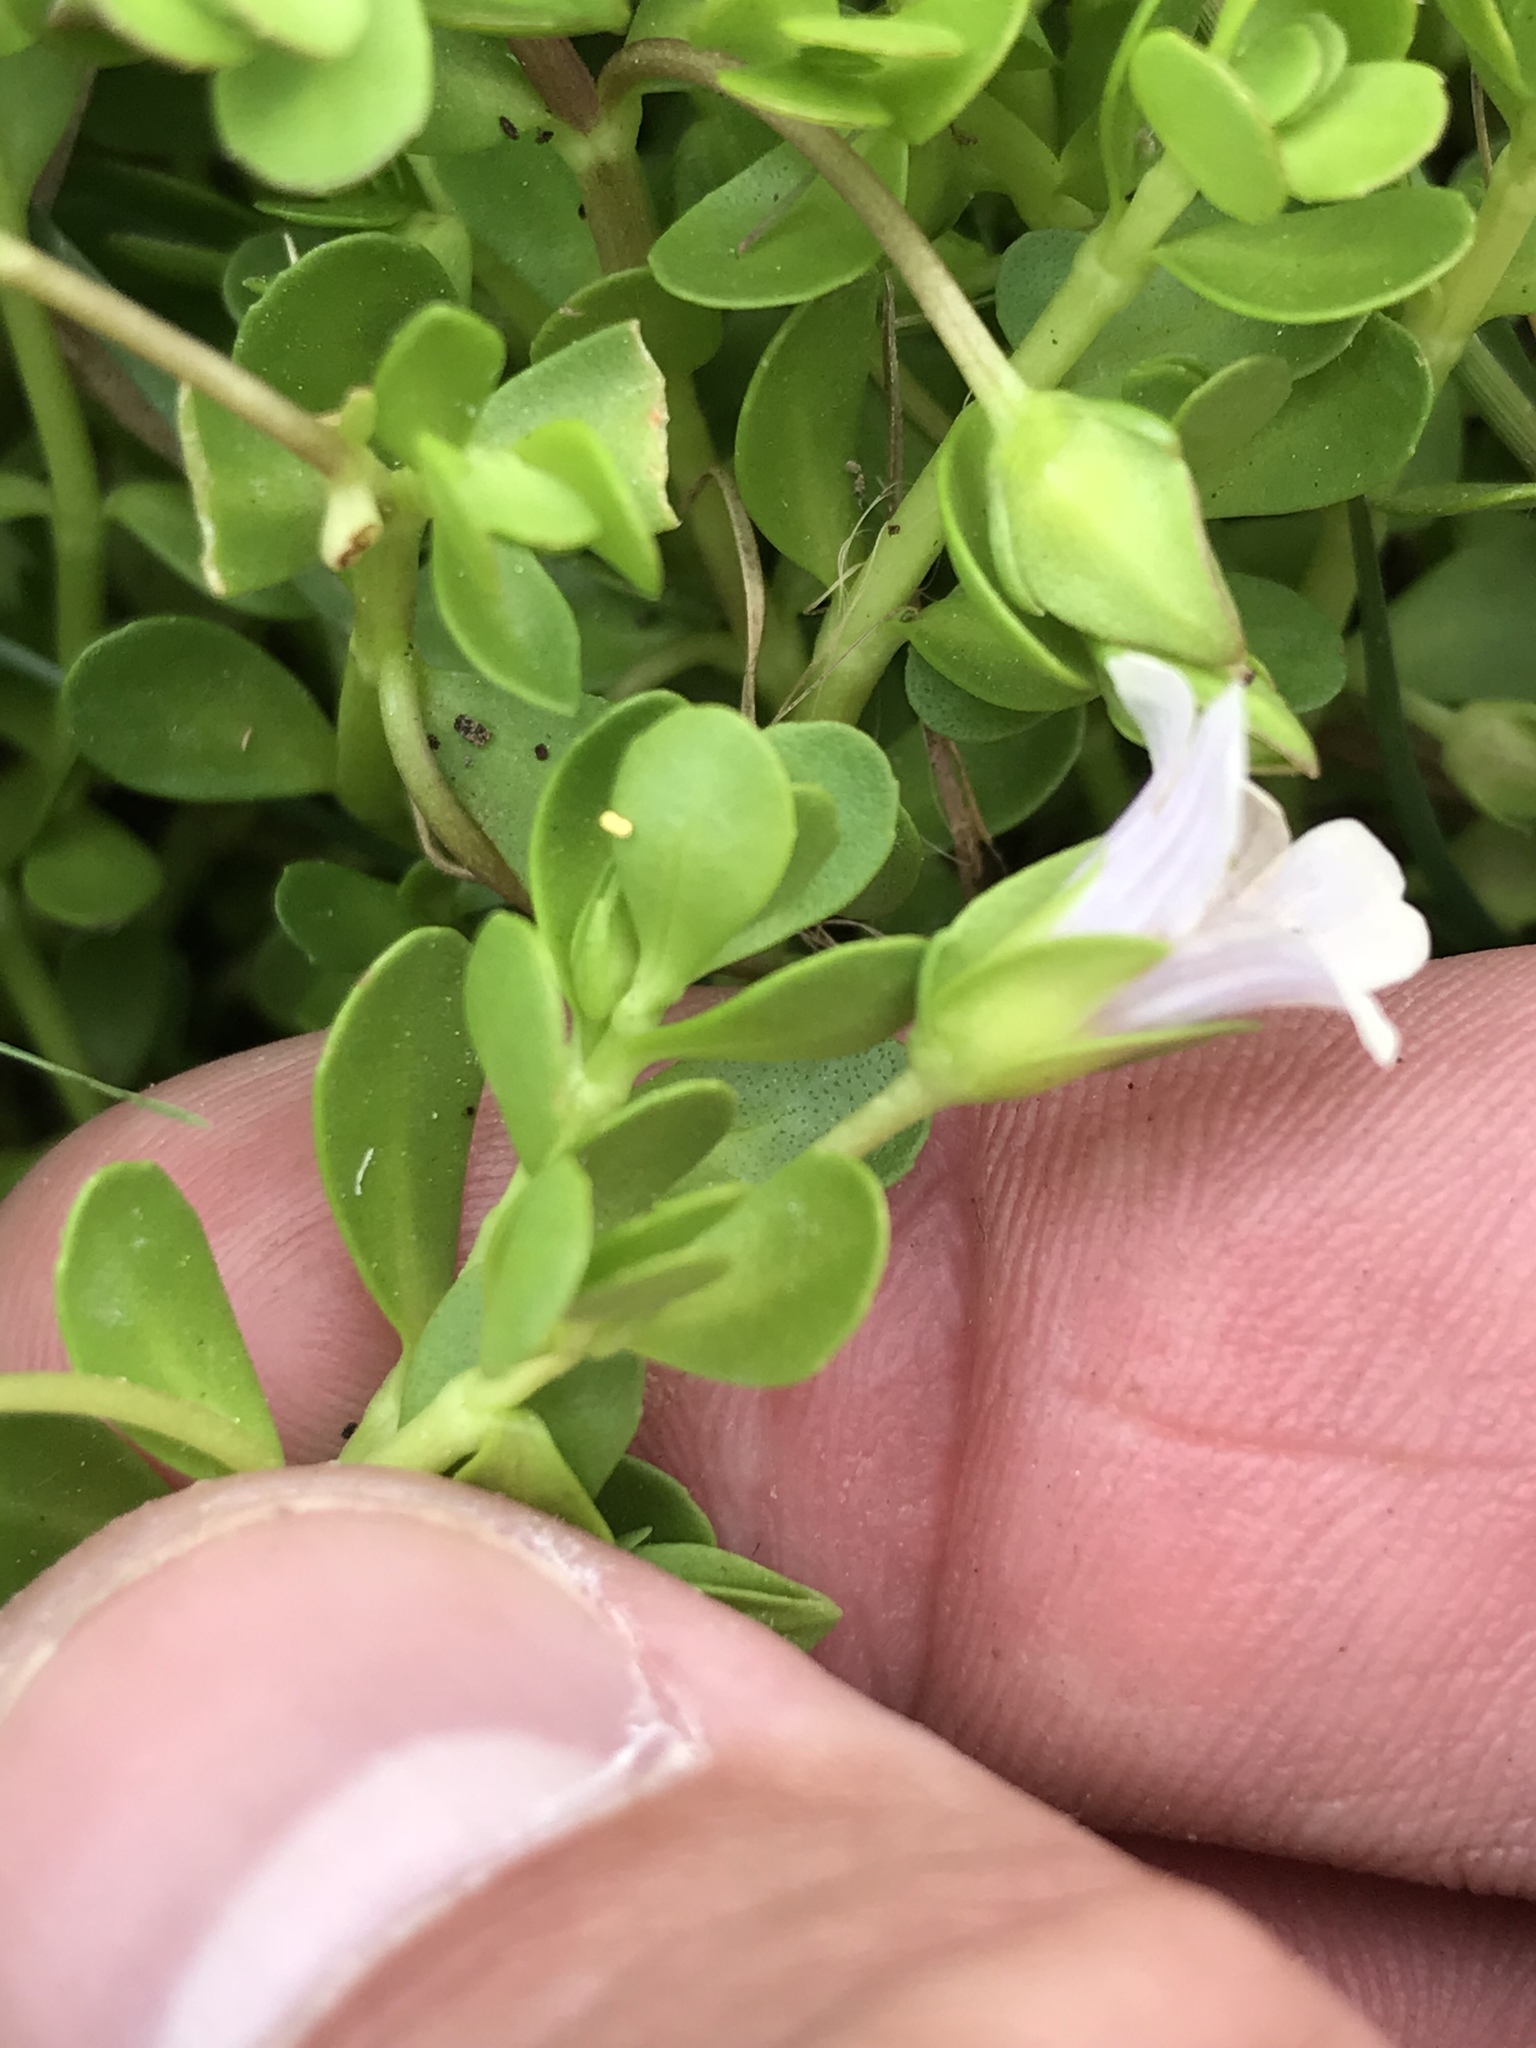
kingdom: Plantae
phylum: Tracheophyta
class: Magnoliopsida
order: Lamiales
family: Plantaginaceae
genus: Bacopa
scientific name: Bacopa monnieri
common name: Indian-pennywort
